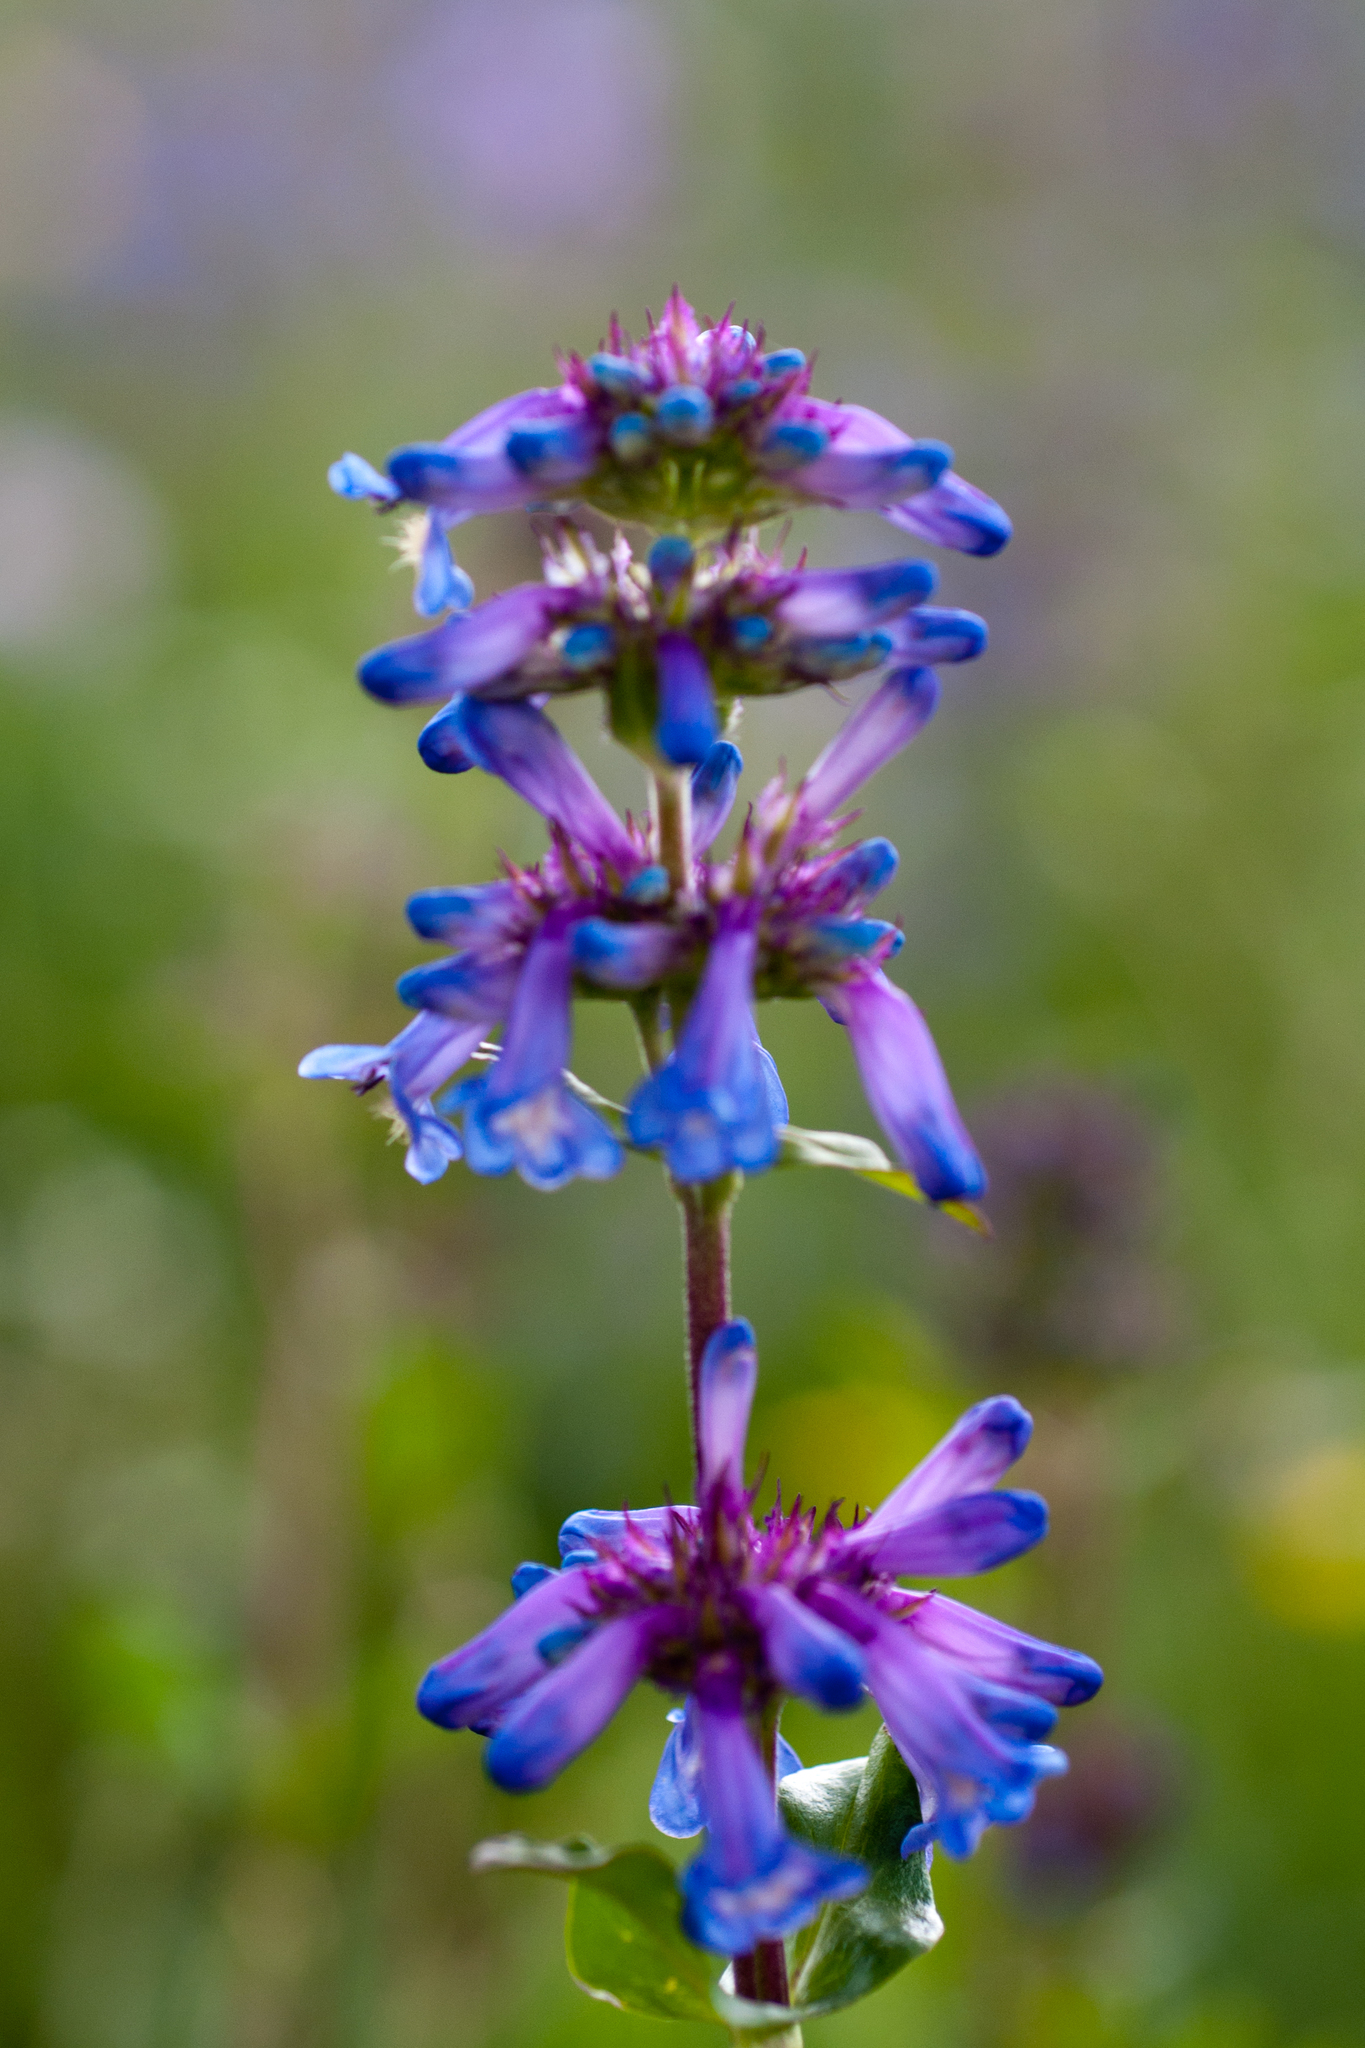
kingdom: Plantae
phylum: Tracheophyta
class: Magnoliopsida
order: Lamiales
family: Plantaginaceae
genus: Penstemon
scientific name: Penstemon rydbergii
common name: Rydberg's beardtongue
